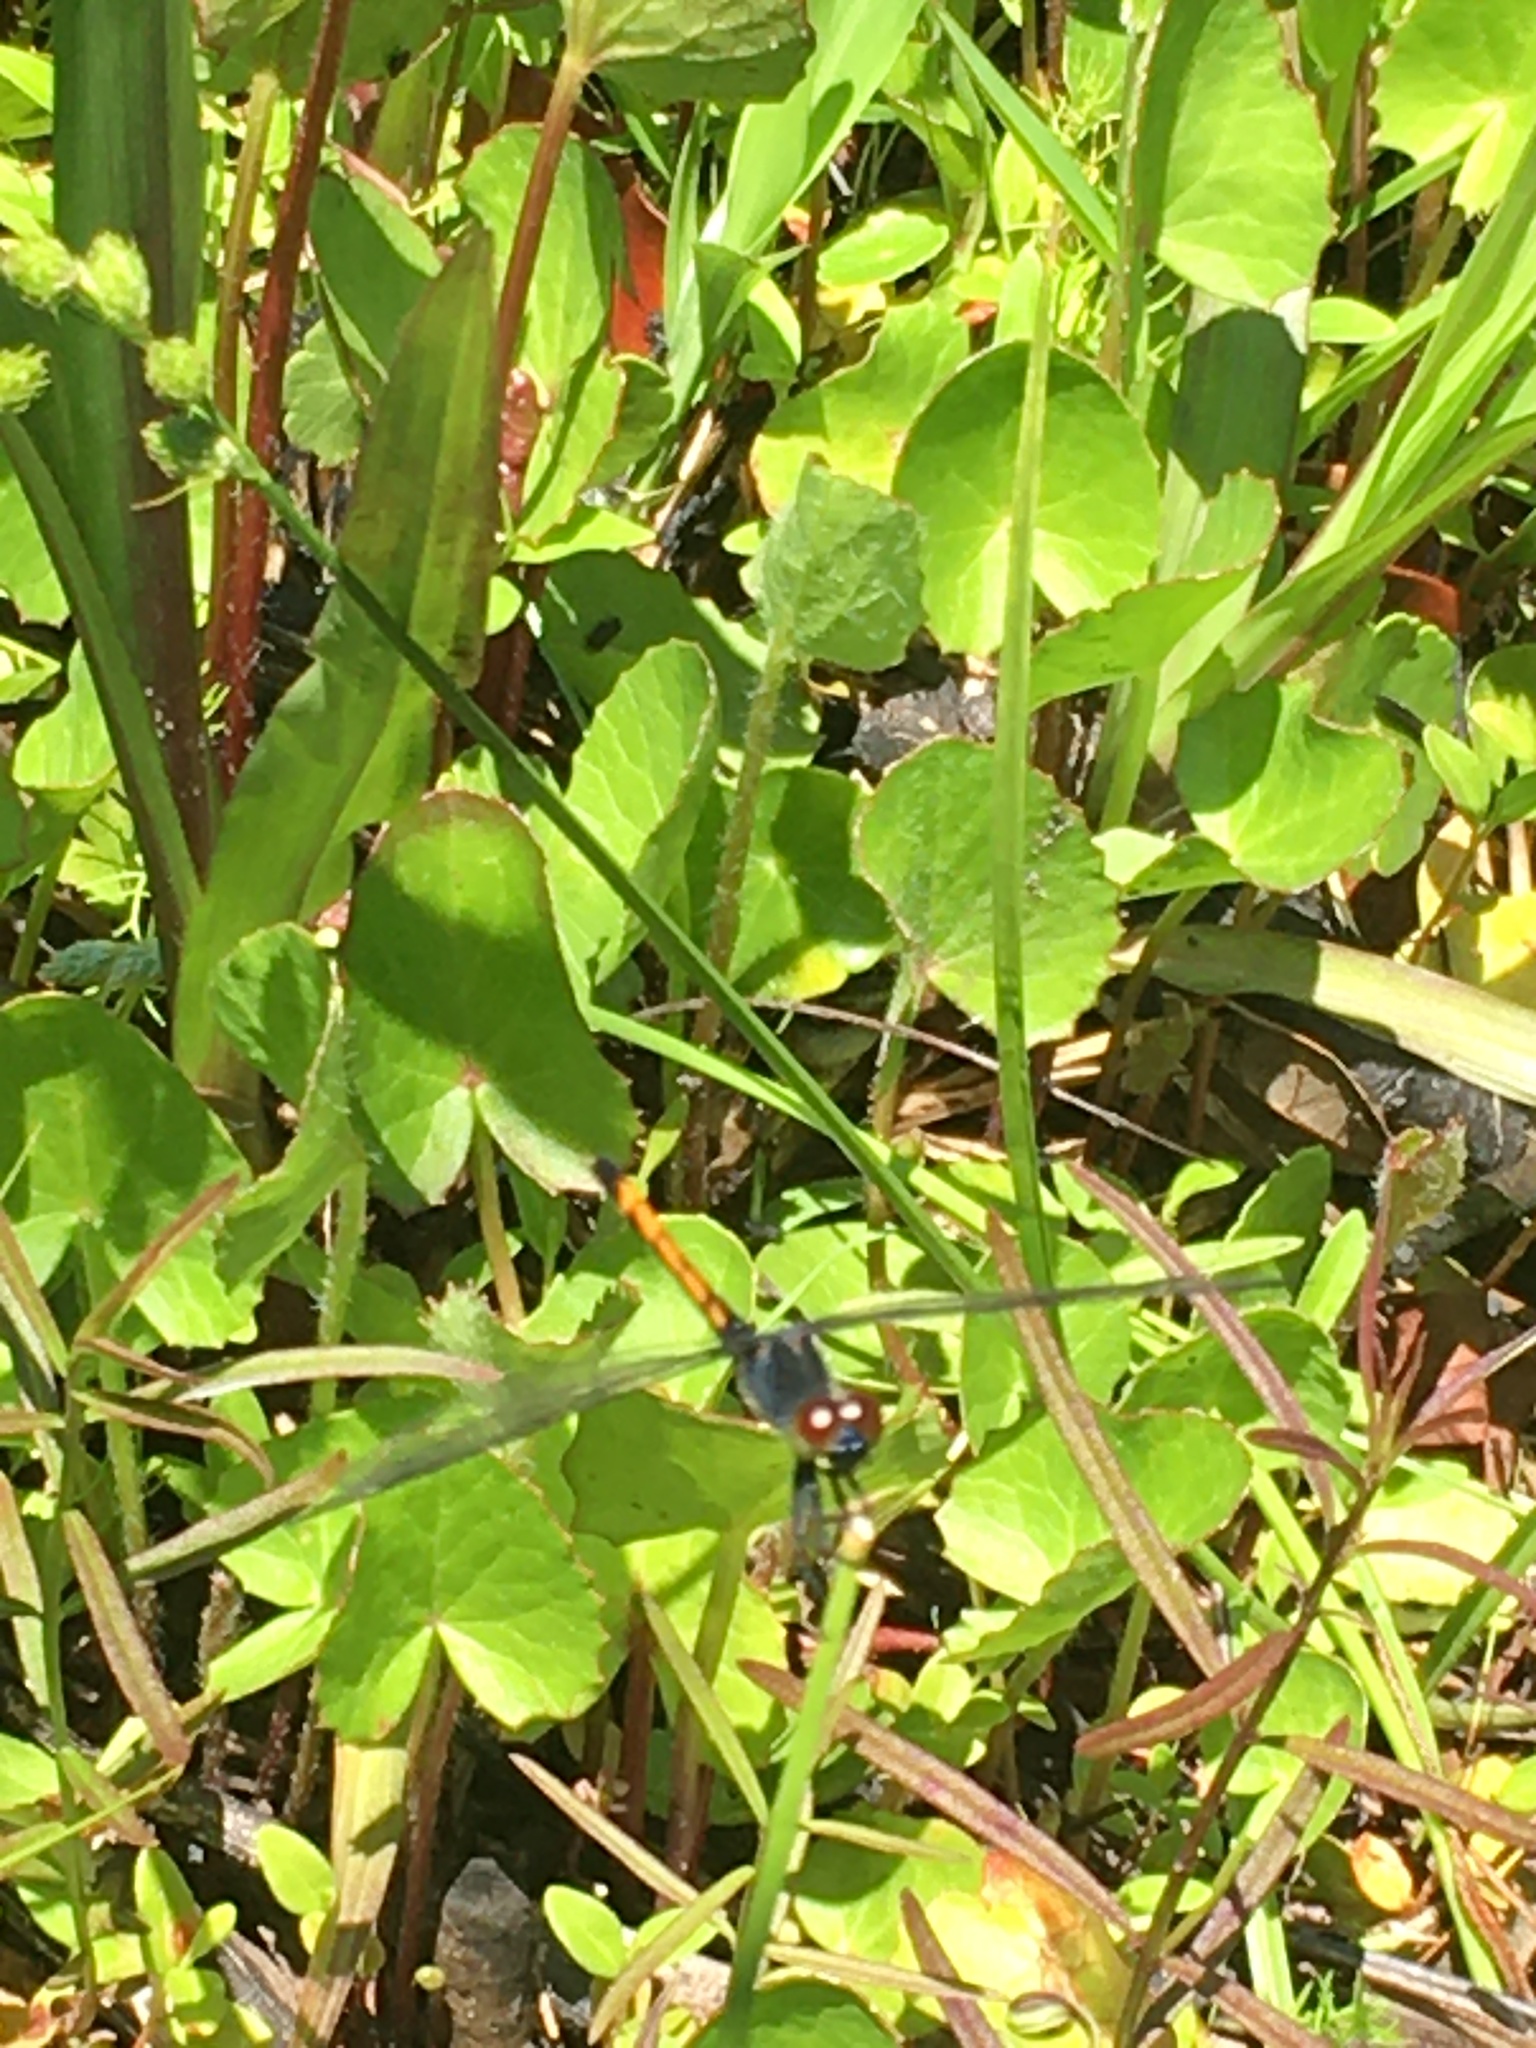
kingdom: Animalia
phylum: Arthropoda
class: Insecta
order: Odonata
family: Libellulidae
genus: Erythrodiplax
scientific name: Erythrodiplax berenice
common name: Seaside dragonlet
